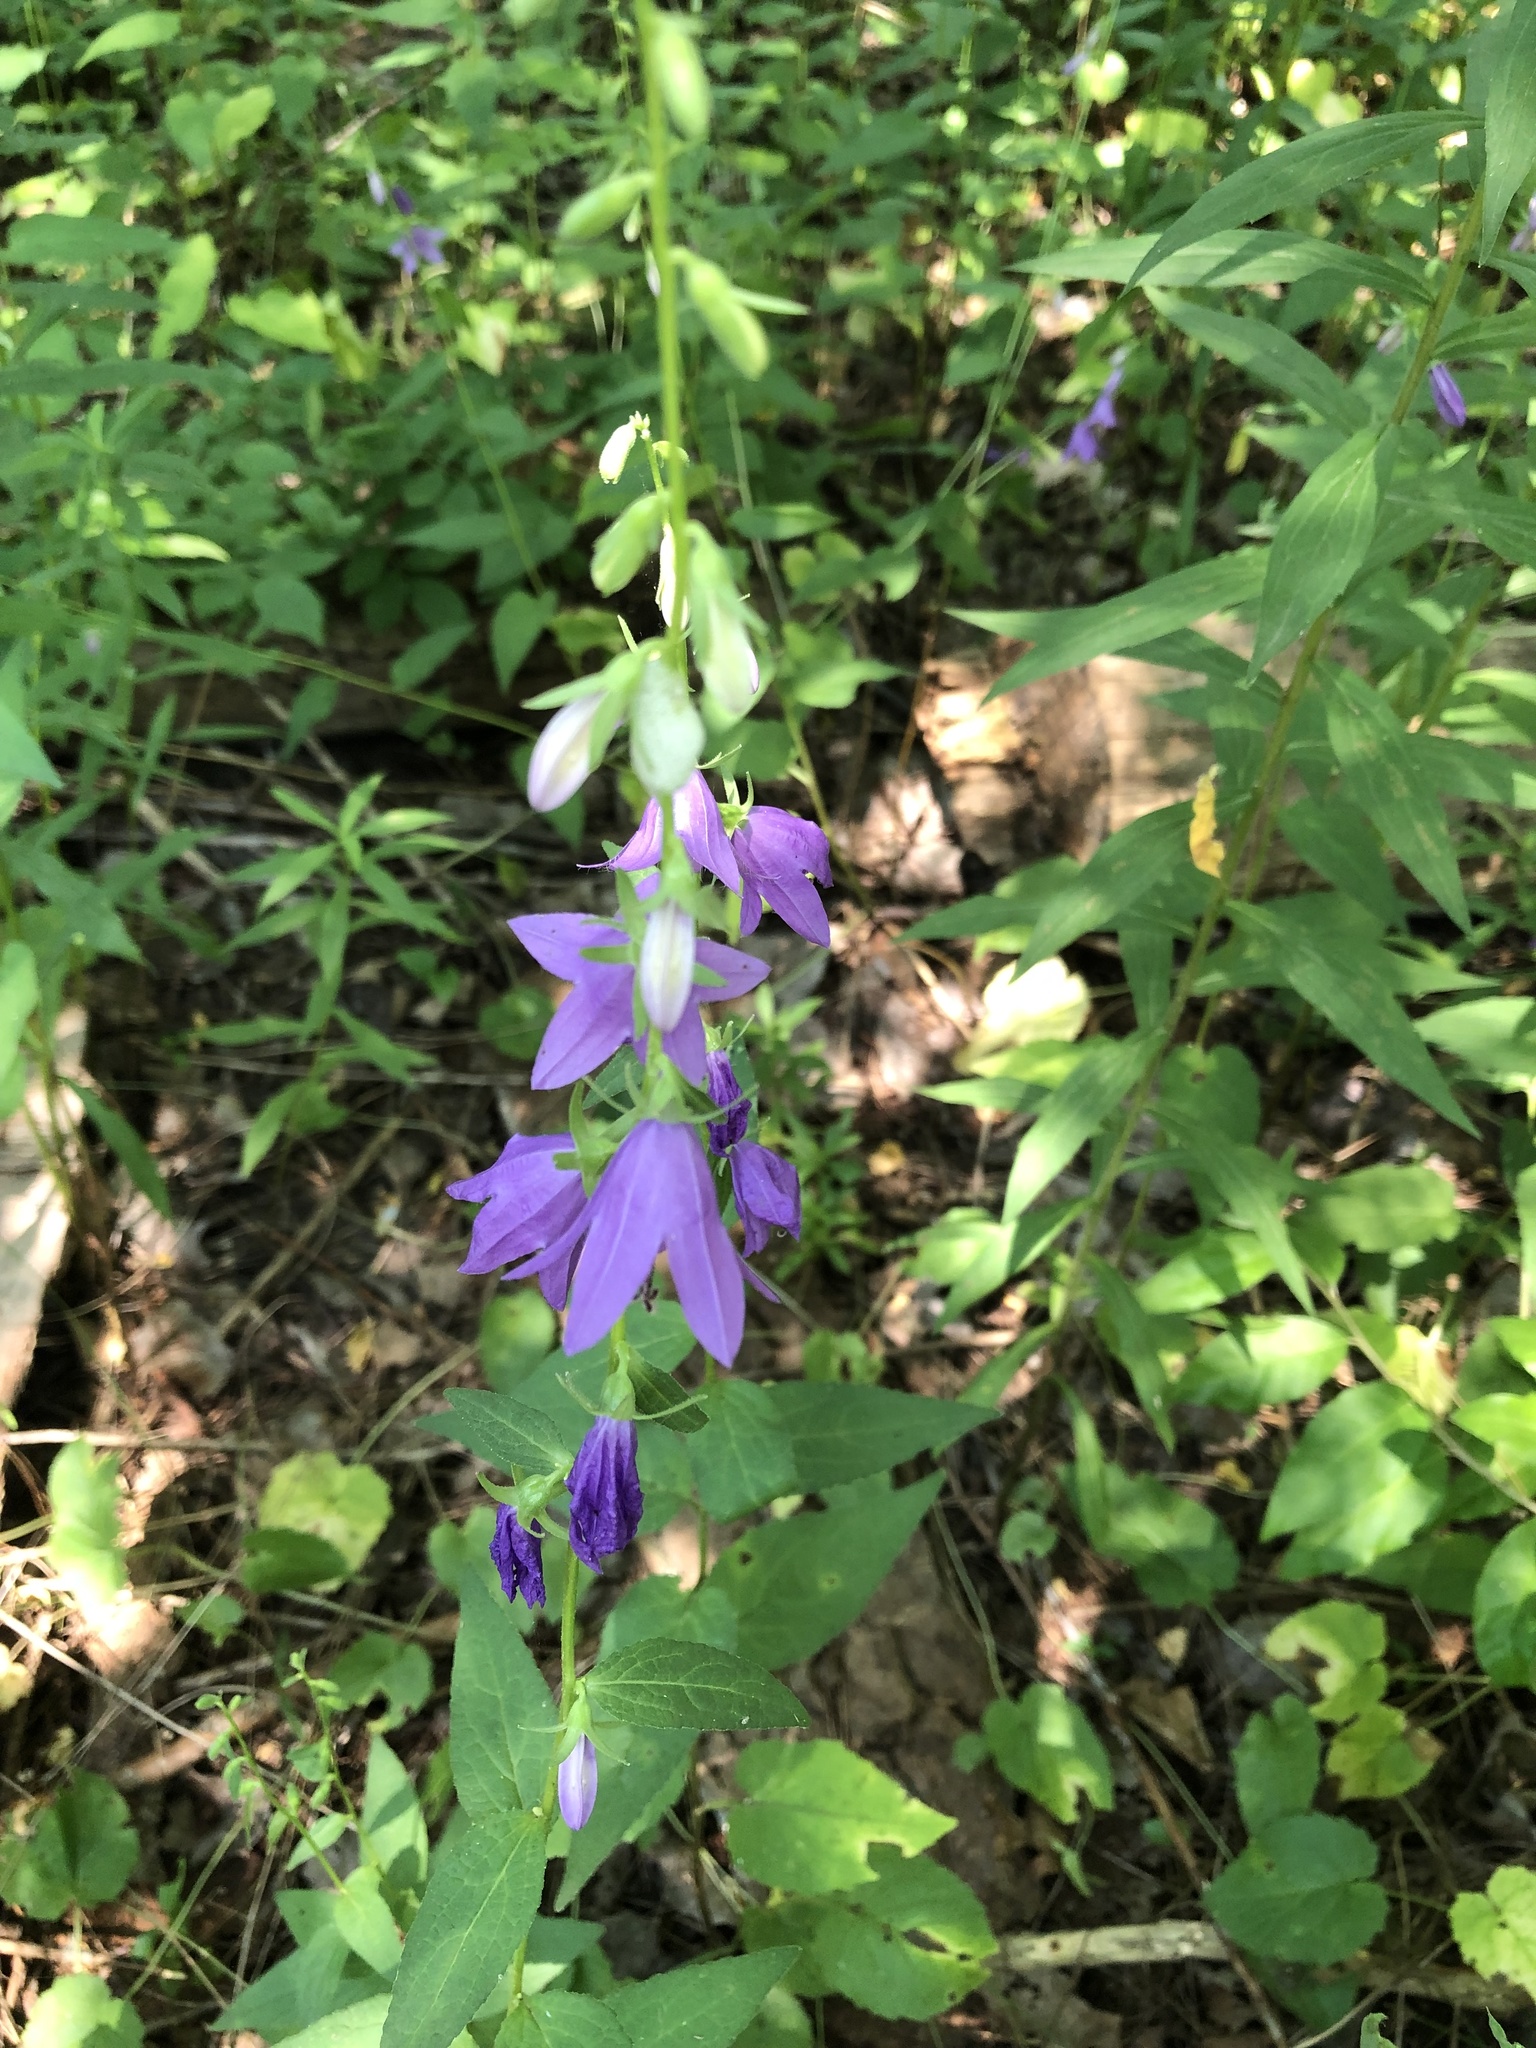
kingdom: Plantae
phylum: Tracheophyta
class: Magnoliopsida
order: Asterales
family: Campanulaceae
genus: Campanula
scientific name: Campanula rapunculoides
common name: Creeping bellflower
